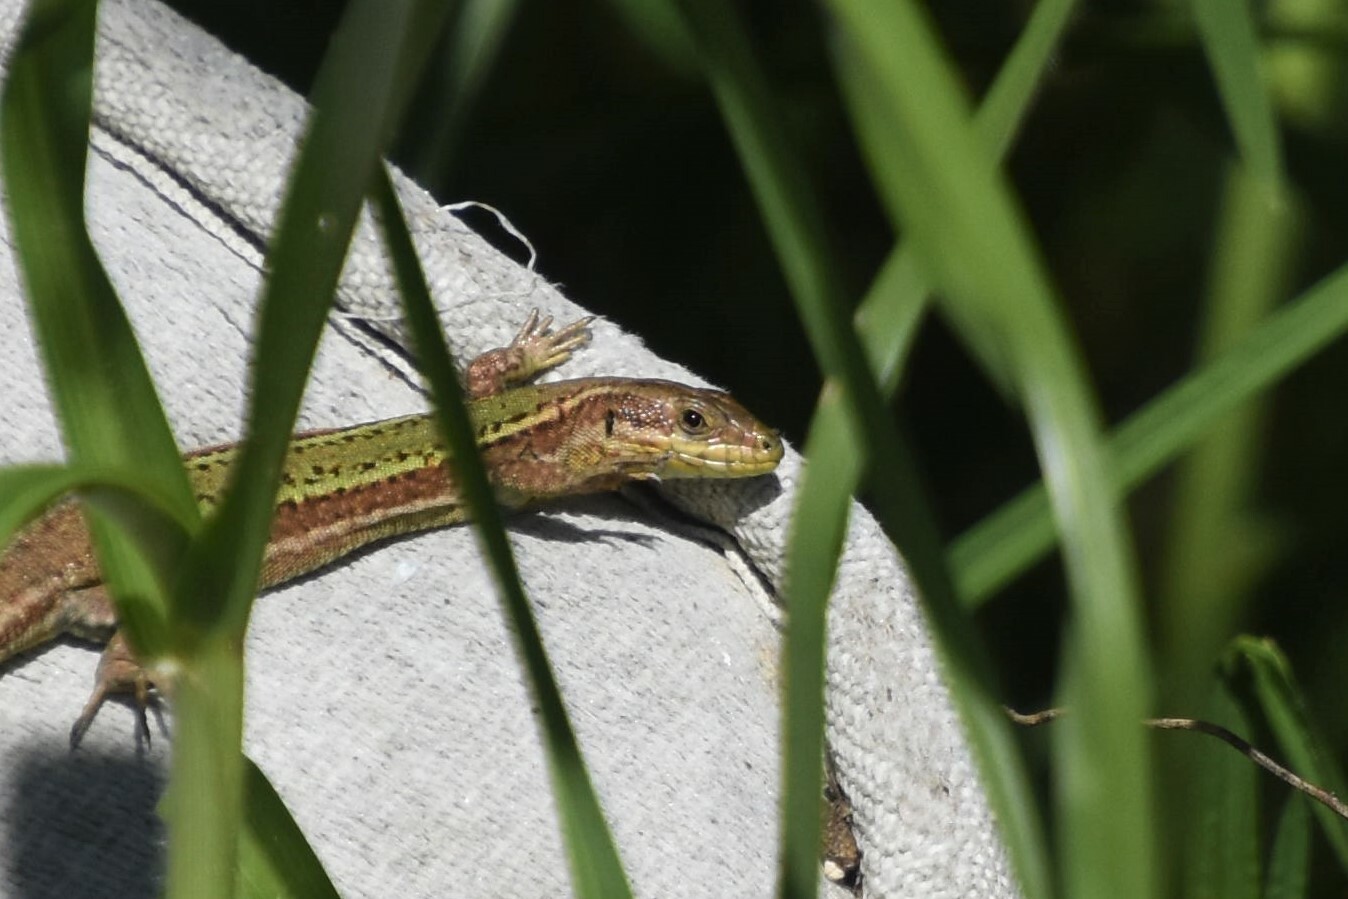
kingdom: Animalia
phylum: Chordata
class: Squamata
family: Lacertidae
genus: Podarcis
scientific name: Podarcis bocagei
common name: Bocage's wall lizard
